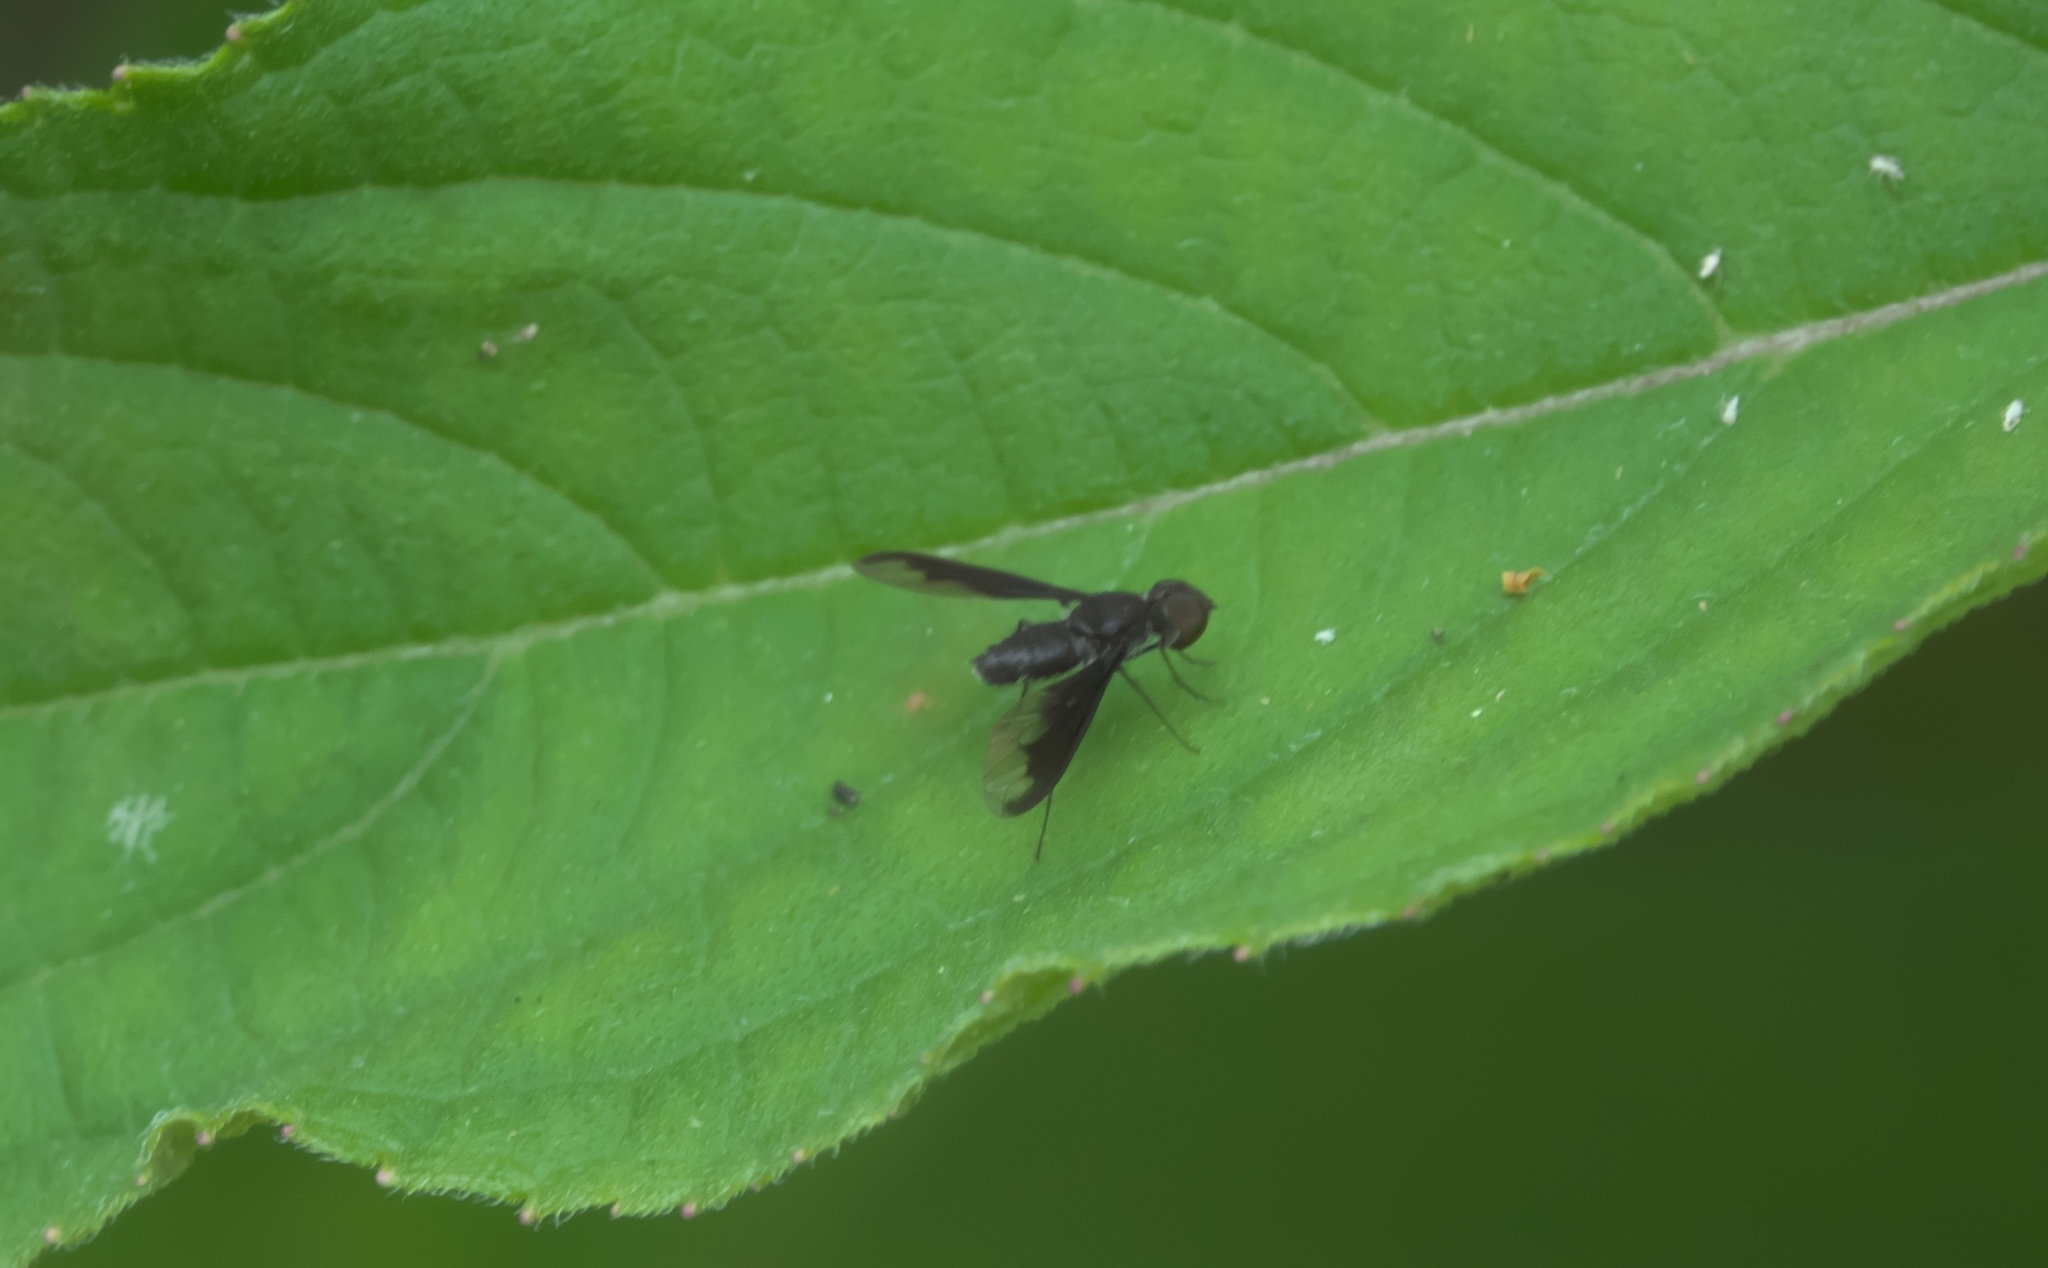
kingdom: Animalia
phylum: Arthropoda
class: Insecta
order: Diptera
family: Bombyliidae
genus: Anthrax
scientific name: Anthrax argyropygus
